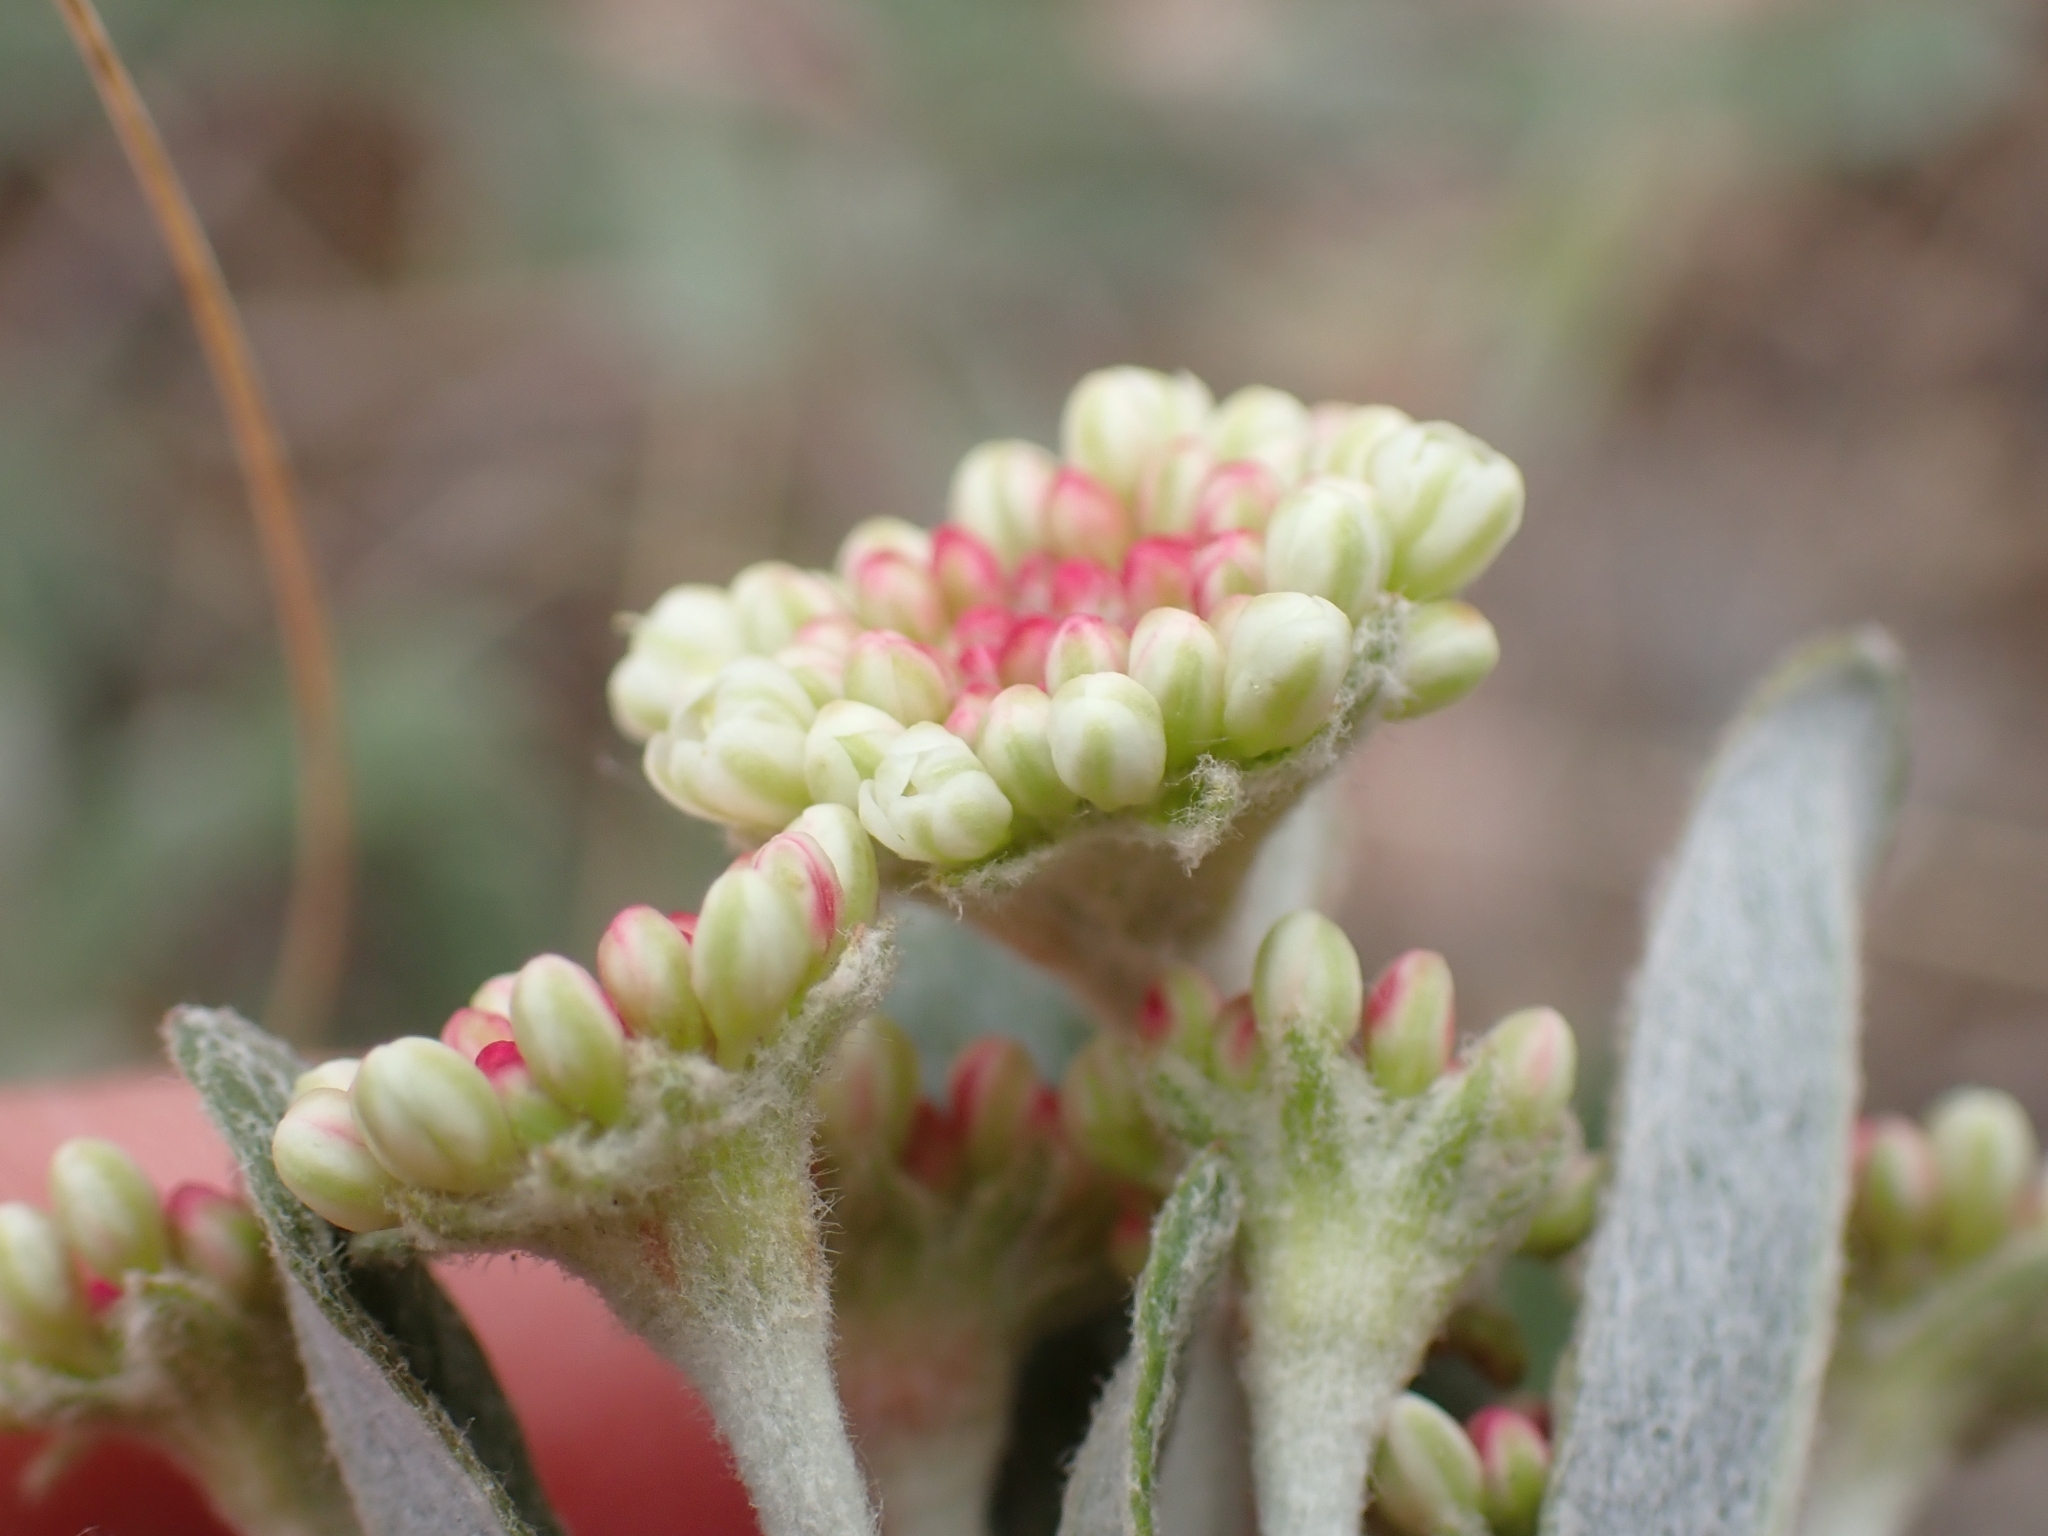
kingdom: Plantae
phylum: Tracheophyta
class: Magnoliopsida
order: Caryophyllales
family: Polygonaceae
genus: Eriogonum
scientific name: Eriogonum heracleoides
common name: Wyeth's buckwheat
